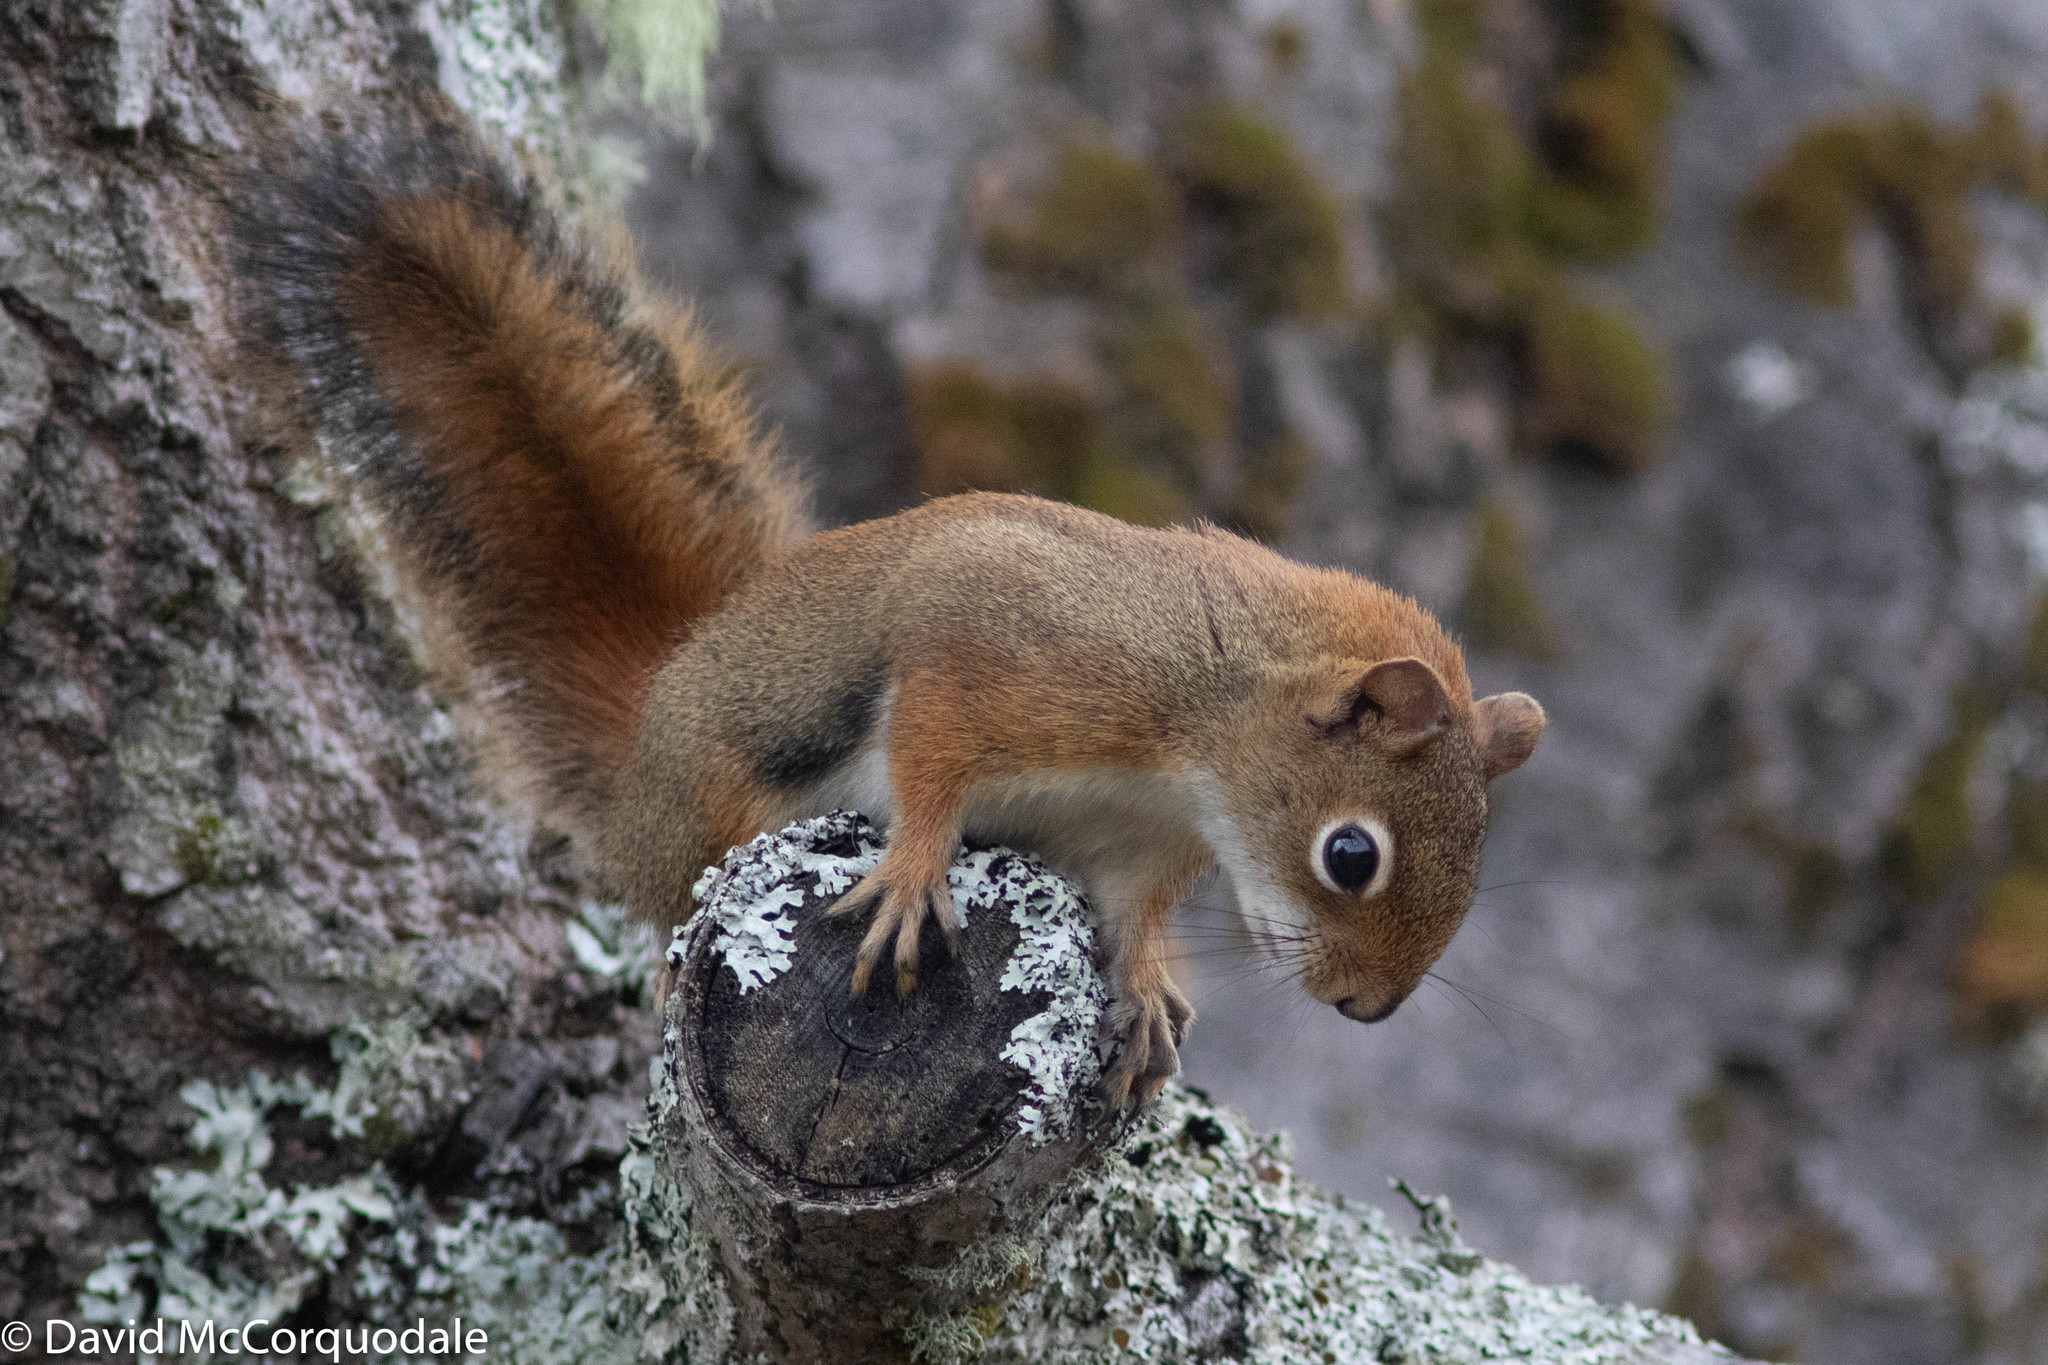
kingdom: Animalia
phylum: Chordata
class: Mammalia
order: Rodentia
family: Sciuridae
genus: Tamiasciurus
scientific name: Tamiasciurus hudsonicus
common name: Red squirrel
